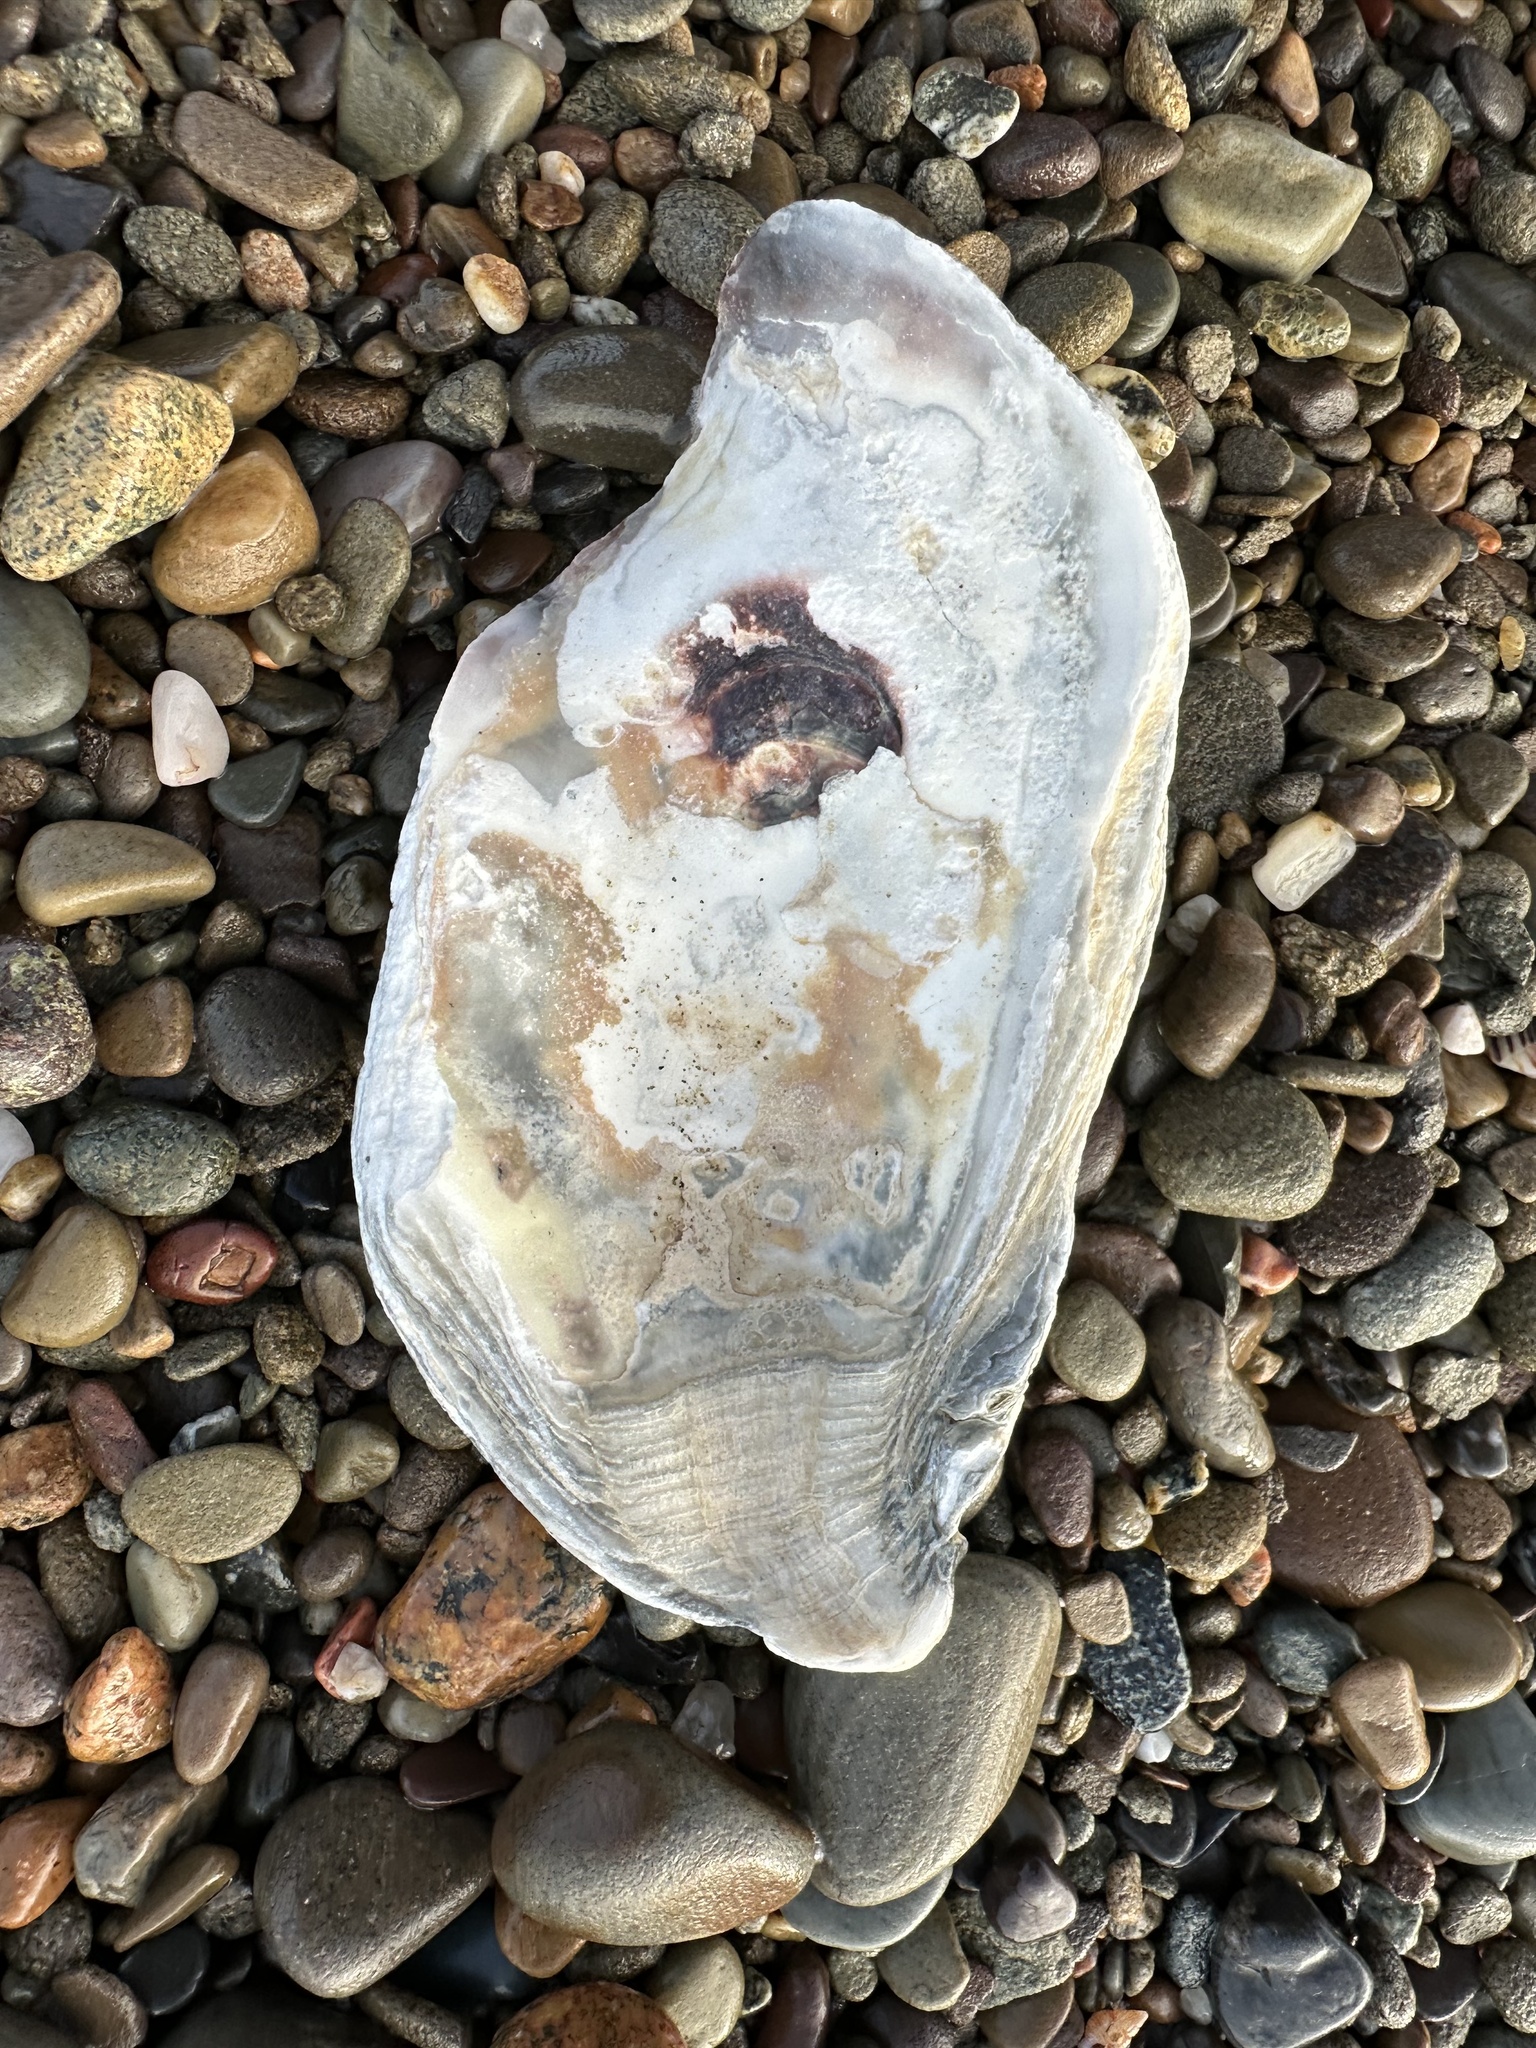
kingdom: Animalia
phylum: Mollusca
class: Bivalvia
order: Ostreida
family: Ostreidae
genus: Crassostrea
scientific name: Crassostrea virginica
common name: American oyster
